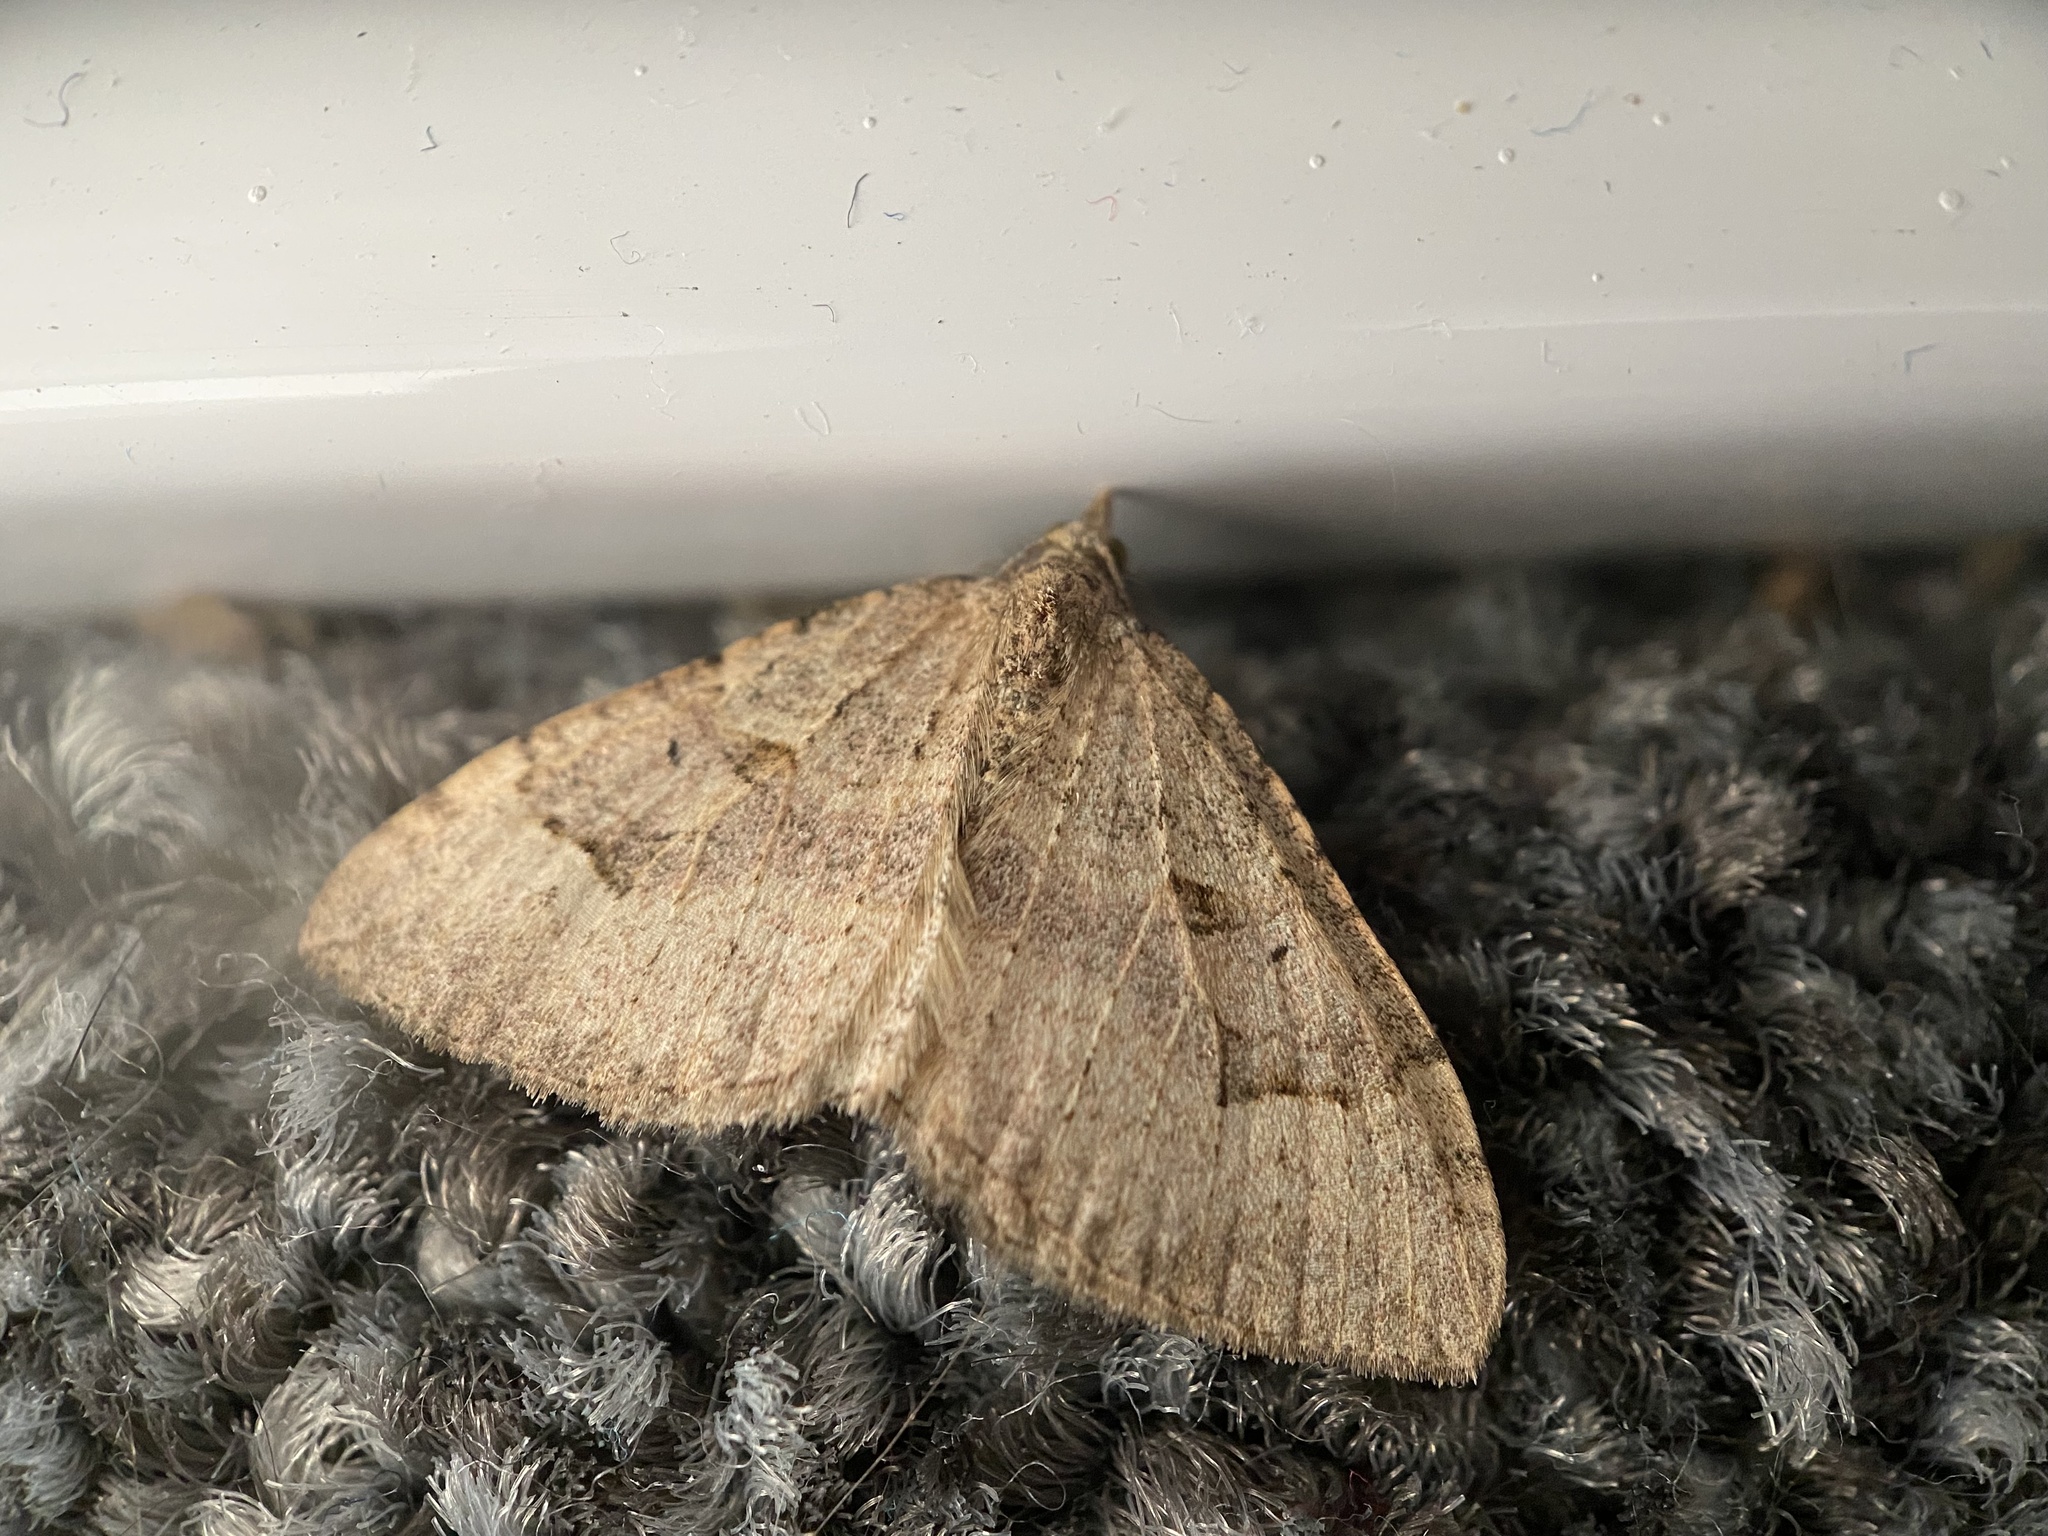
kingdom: Animalia
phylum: Arthropoda
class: Insecta
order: Lepidoptera
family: Geometridae
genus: Epyaxa
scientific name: Epyaxa rosearia
